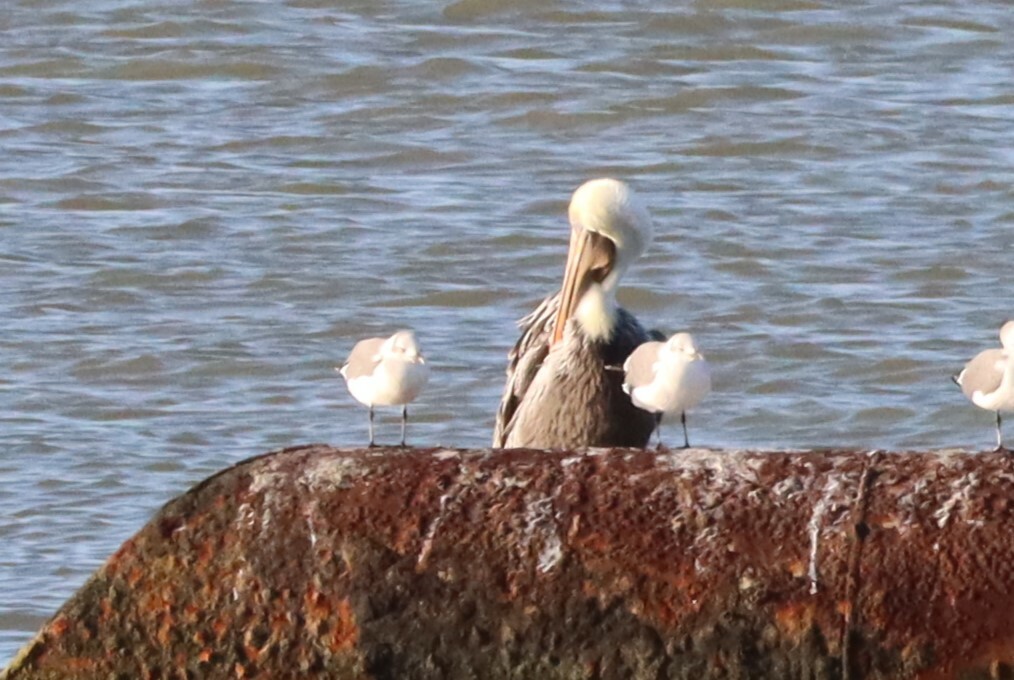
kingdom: Animalia
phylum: Chordata
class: Aves
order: Pelecaniformes
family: Pelecanidae
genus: Pelecanus
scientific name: Pelecanus occidentalis
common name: Brown pelican
